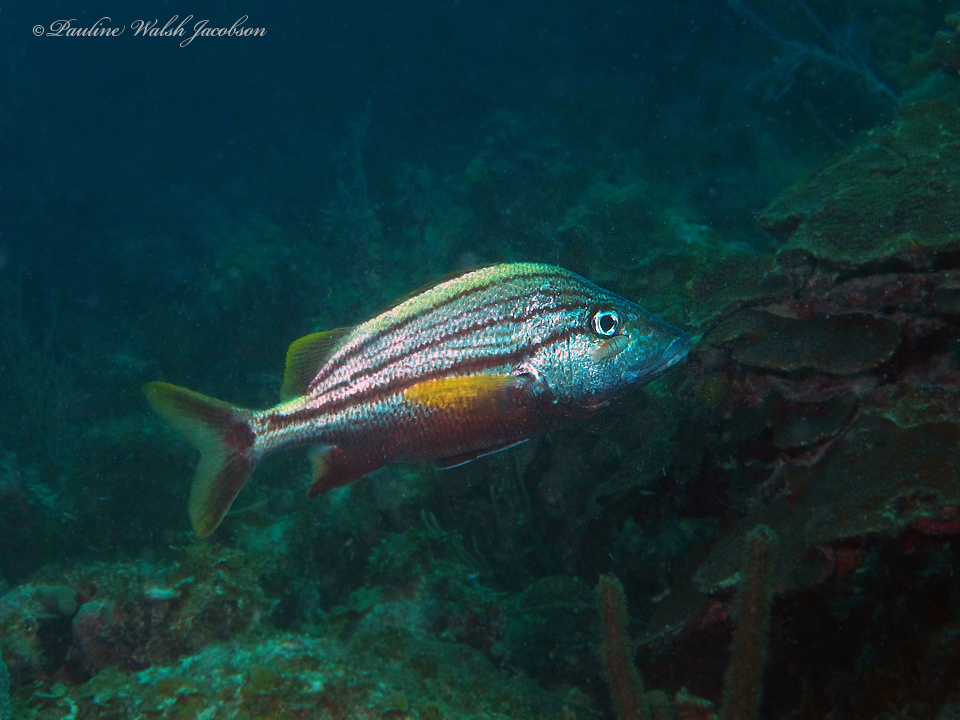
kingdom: Animalia
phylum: Chordata
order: Perciformes
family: Haemulidae
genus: Haemulon
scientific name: Haemulon macrostomum
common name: Spanish grunt
